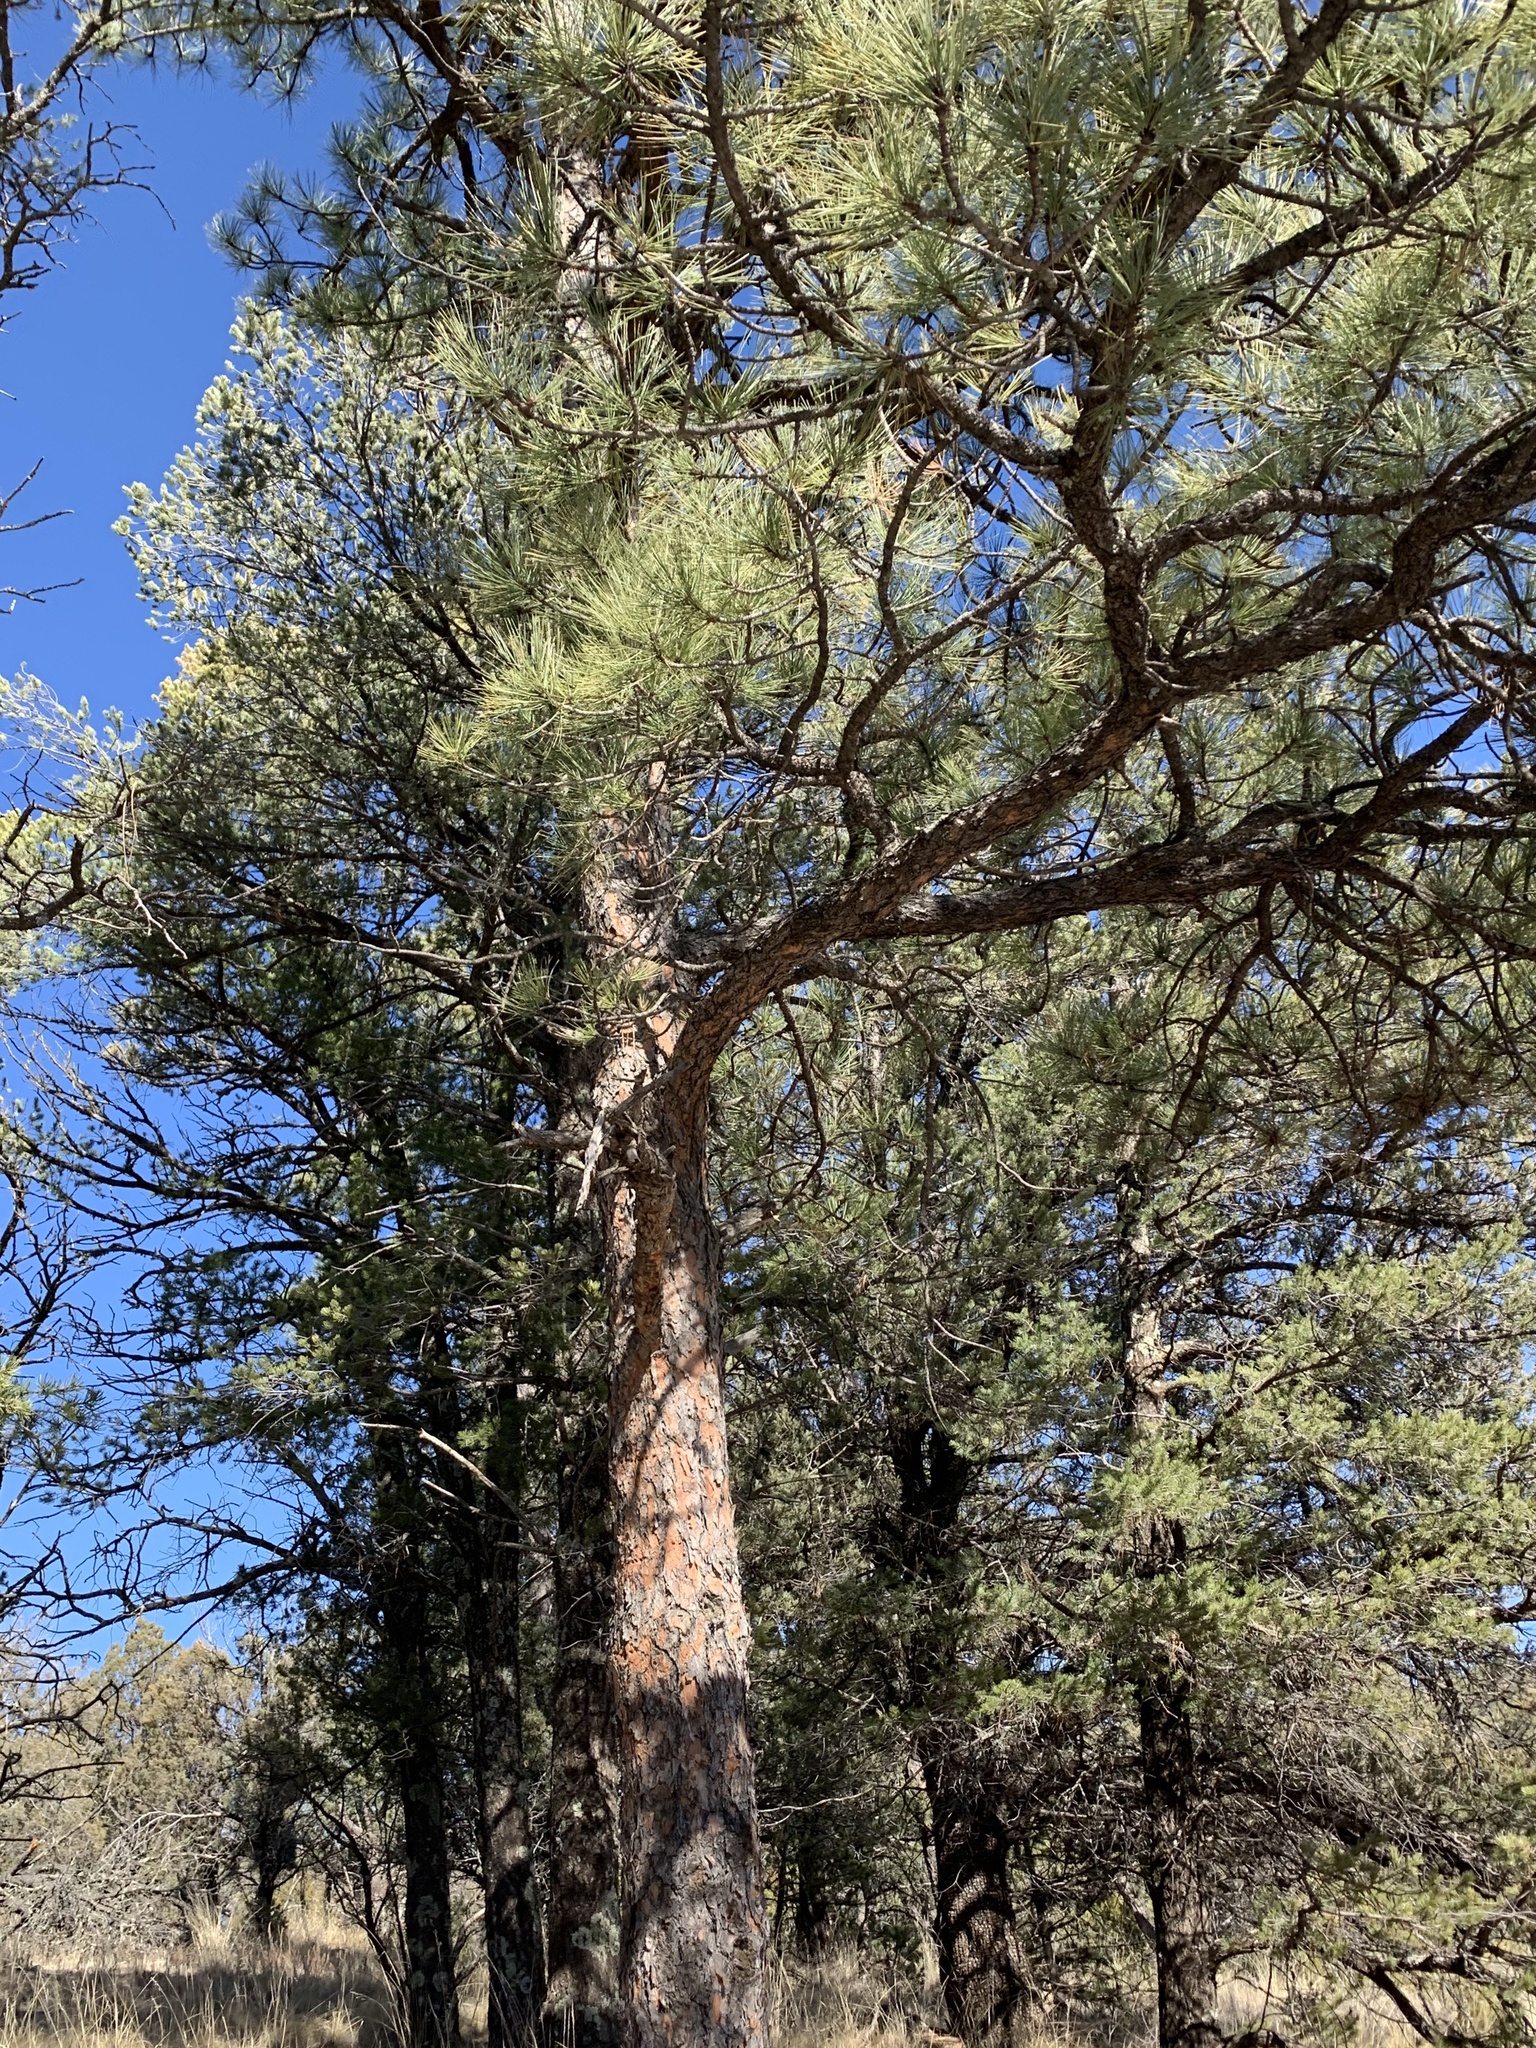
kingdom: Plantae
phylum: Tracheophyta
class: Pinopsida
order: Pinales
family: Pinaceae
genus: Pinus
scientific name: Pinus ponderosa
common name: Western yellow-pine
